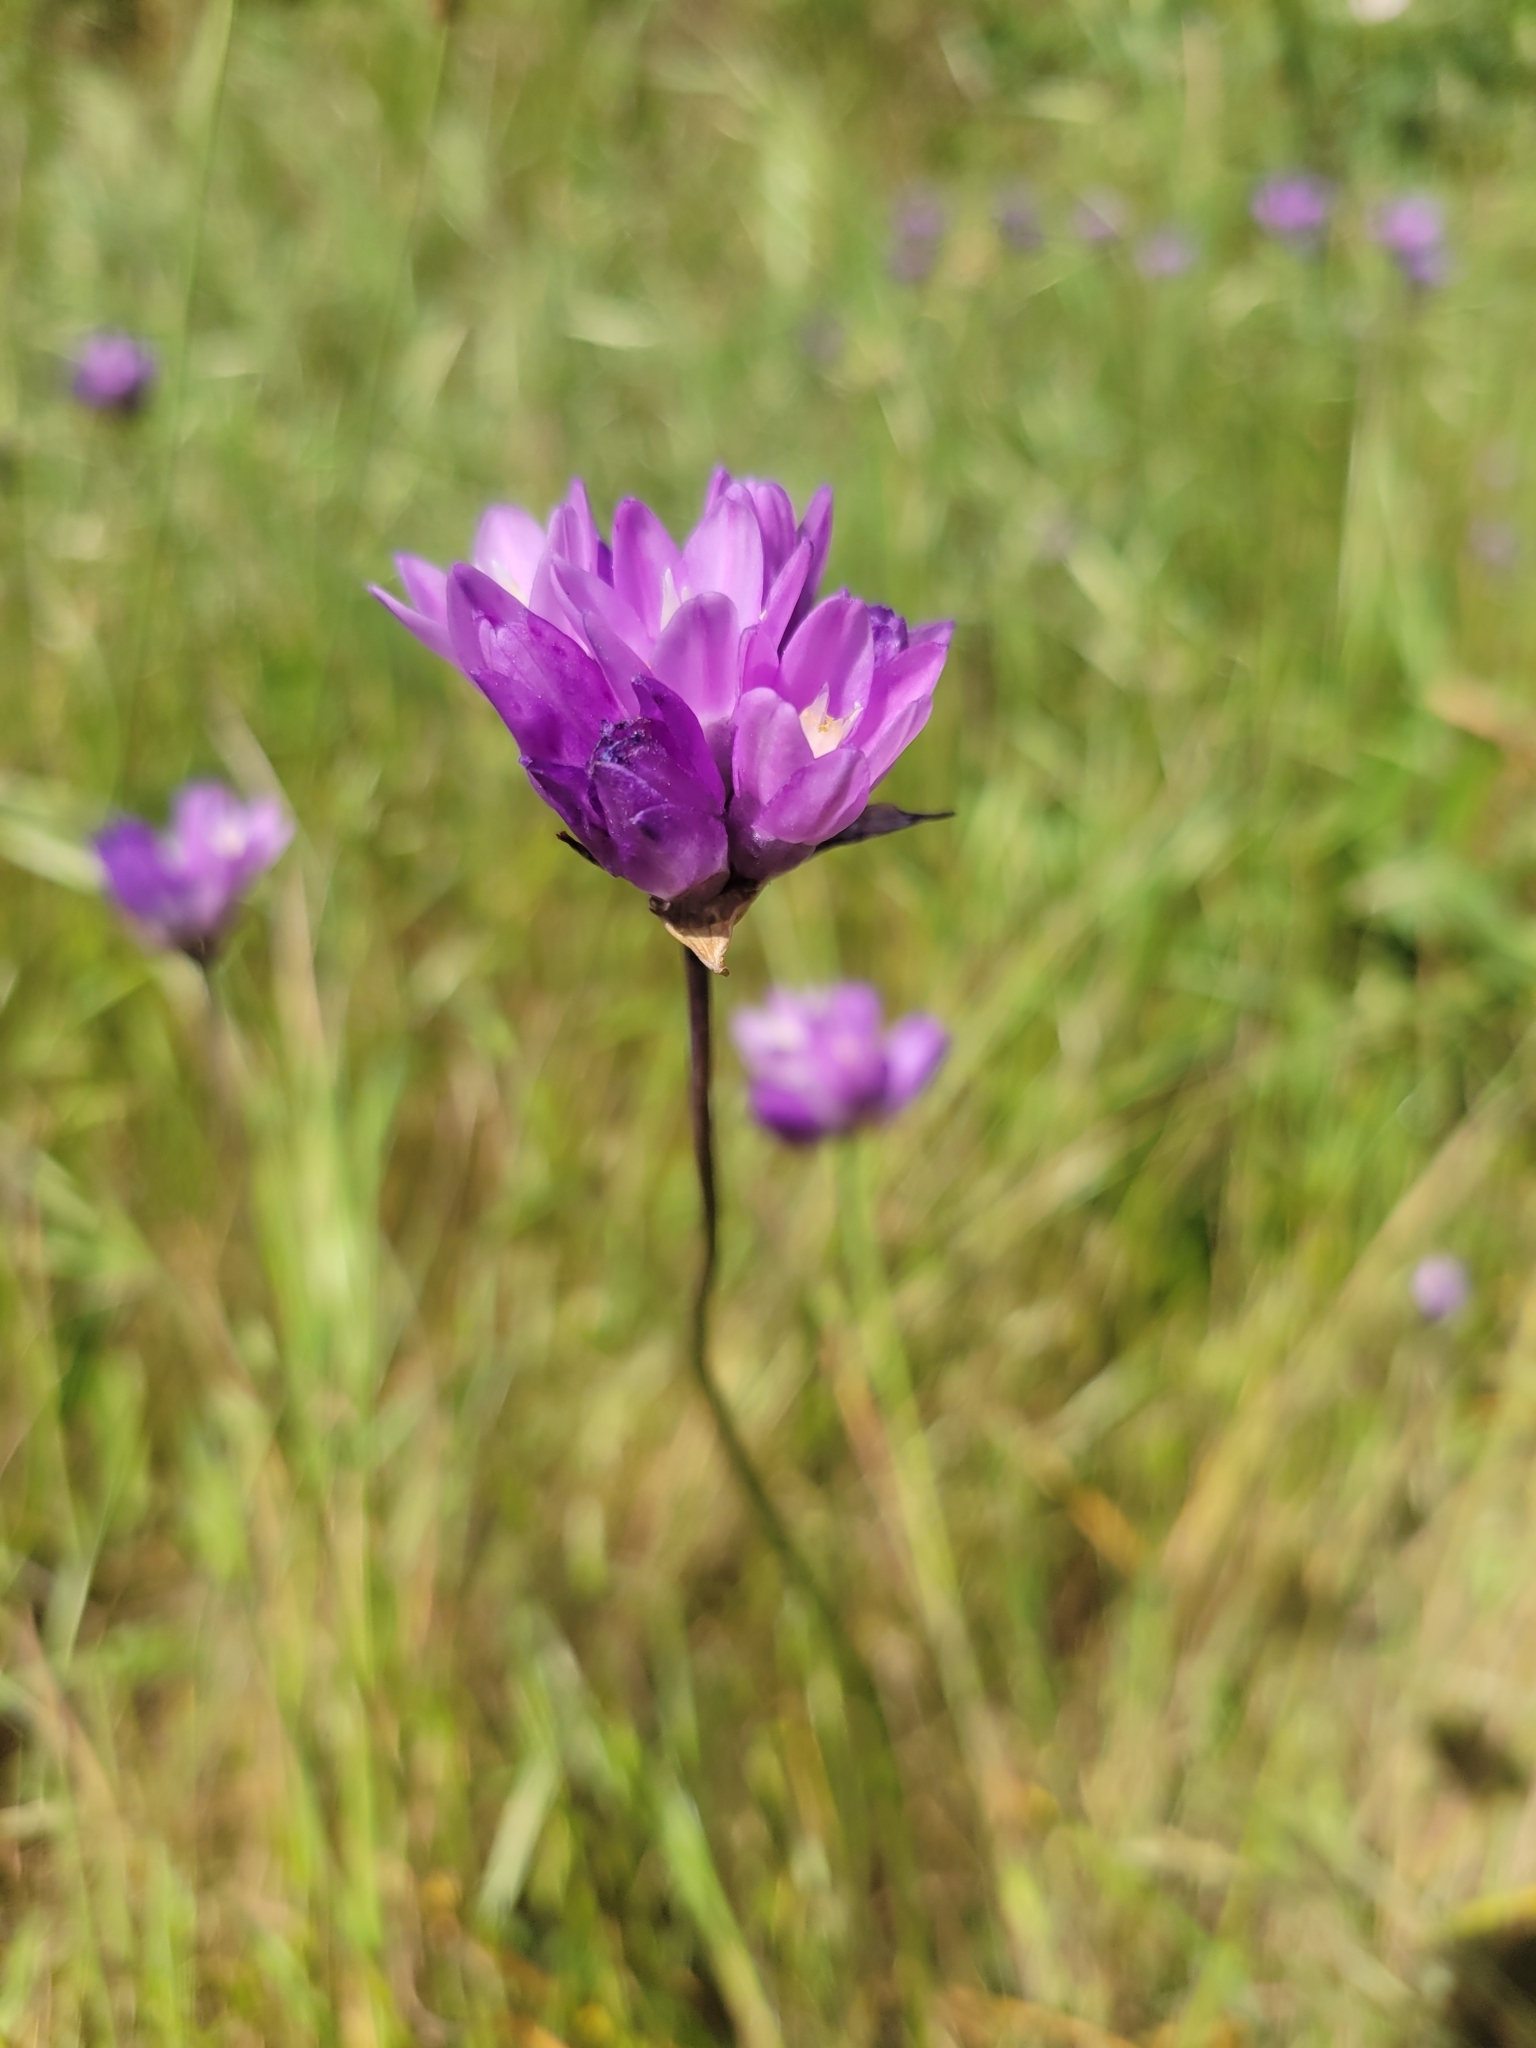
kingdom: Plantae
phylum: Tracheophyta
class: Liliopsida
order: Asparagales
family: Asparagaceae
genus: Dipterostemon
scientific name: Dipterostemon capitatus
